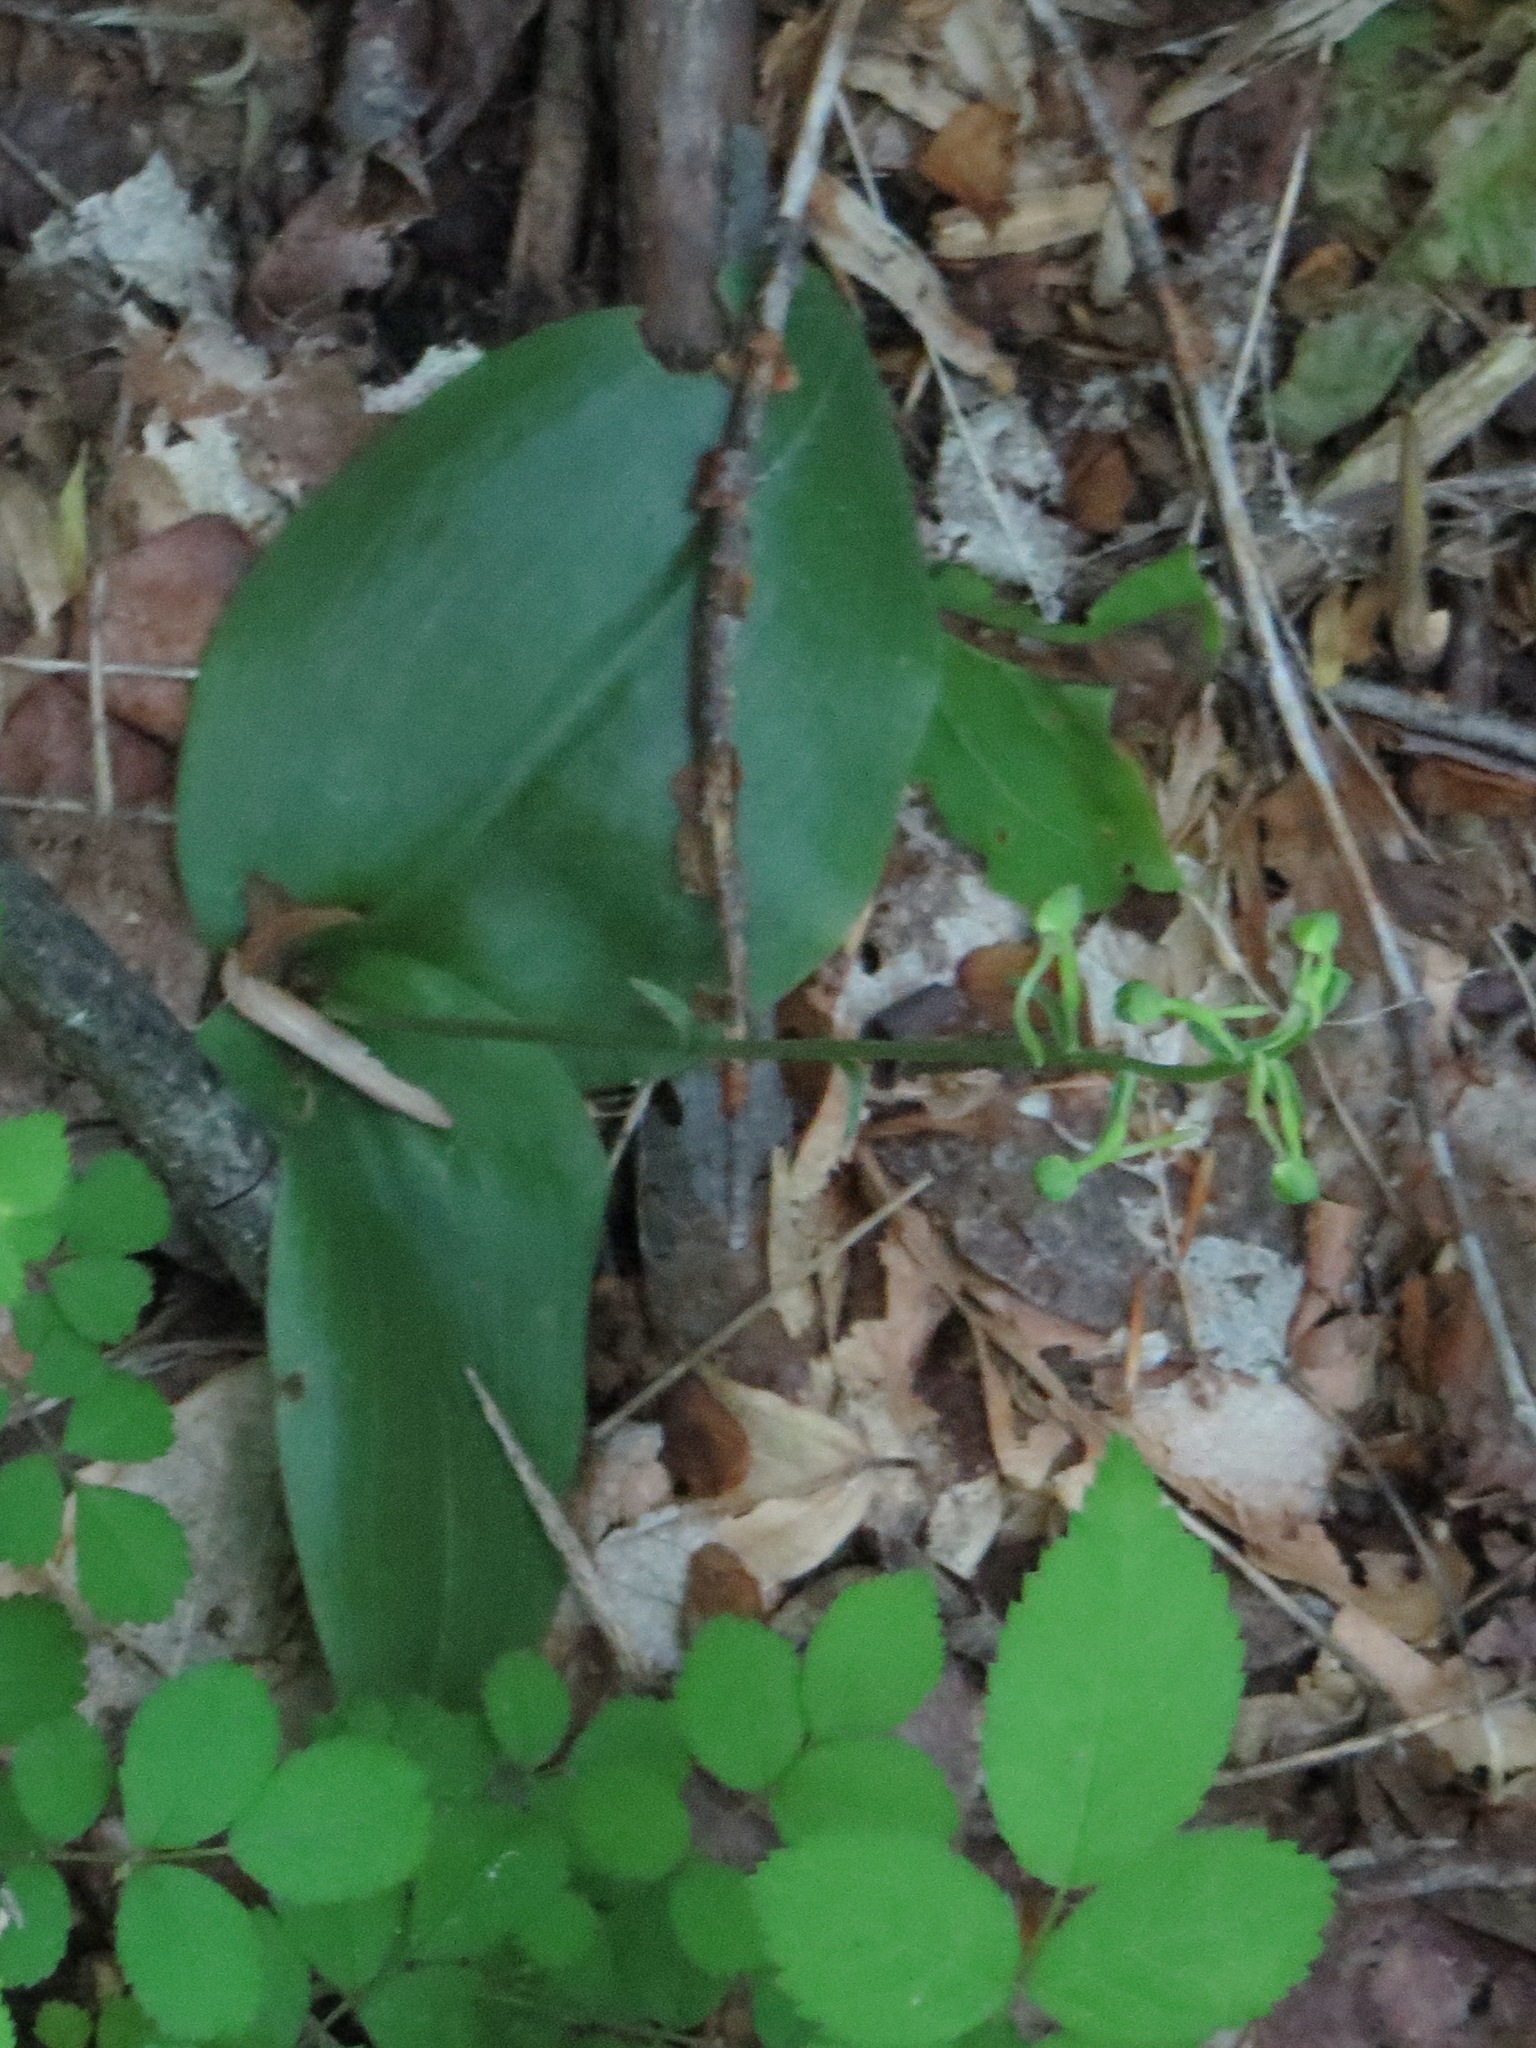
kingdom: Plantae
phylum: Tracheophyta
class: Liliopsida
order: Asparagales
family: Orchidaceae
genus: Platanthera
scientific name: Platanthera orbiculata
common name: Large round-leaved orchid
